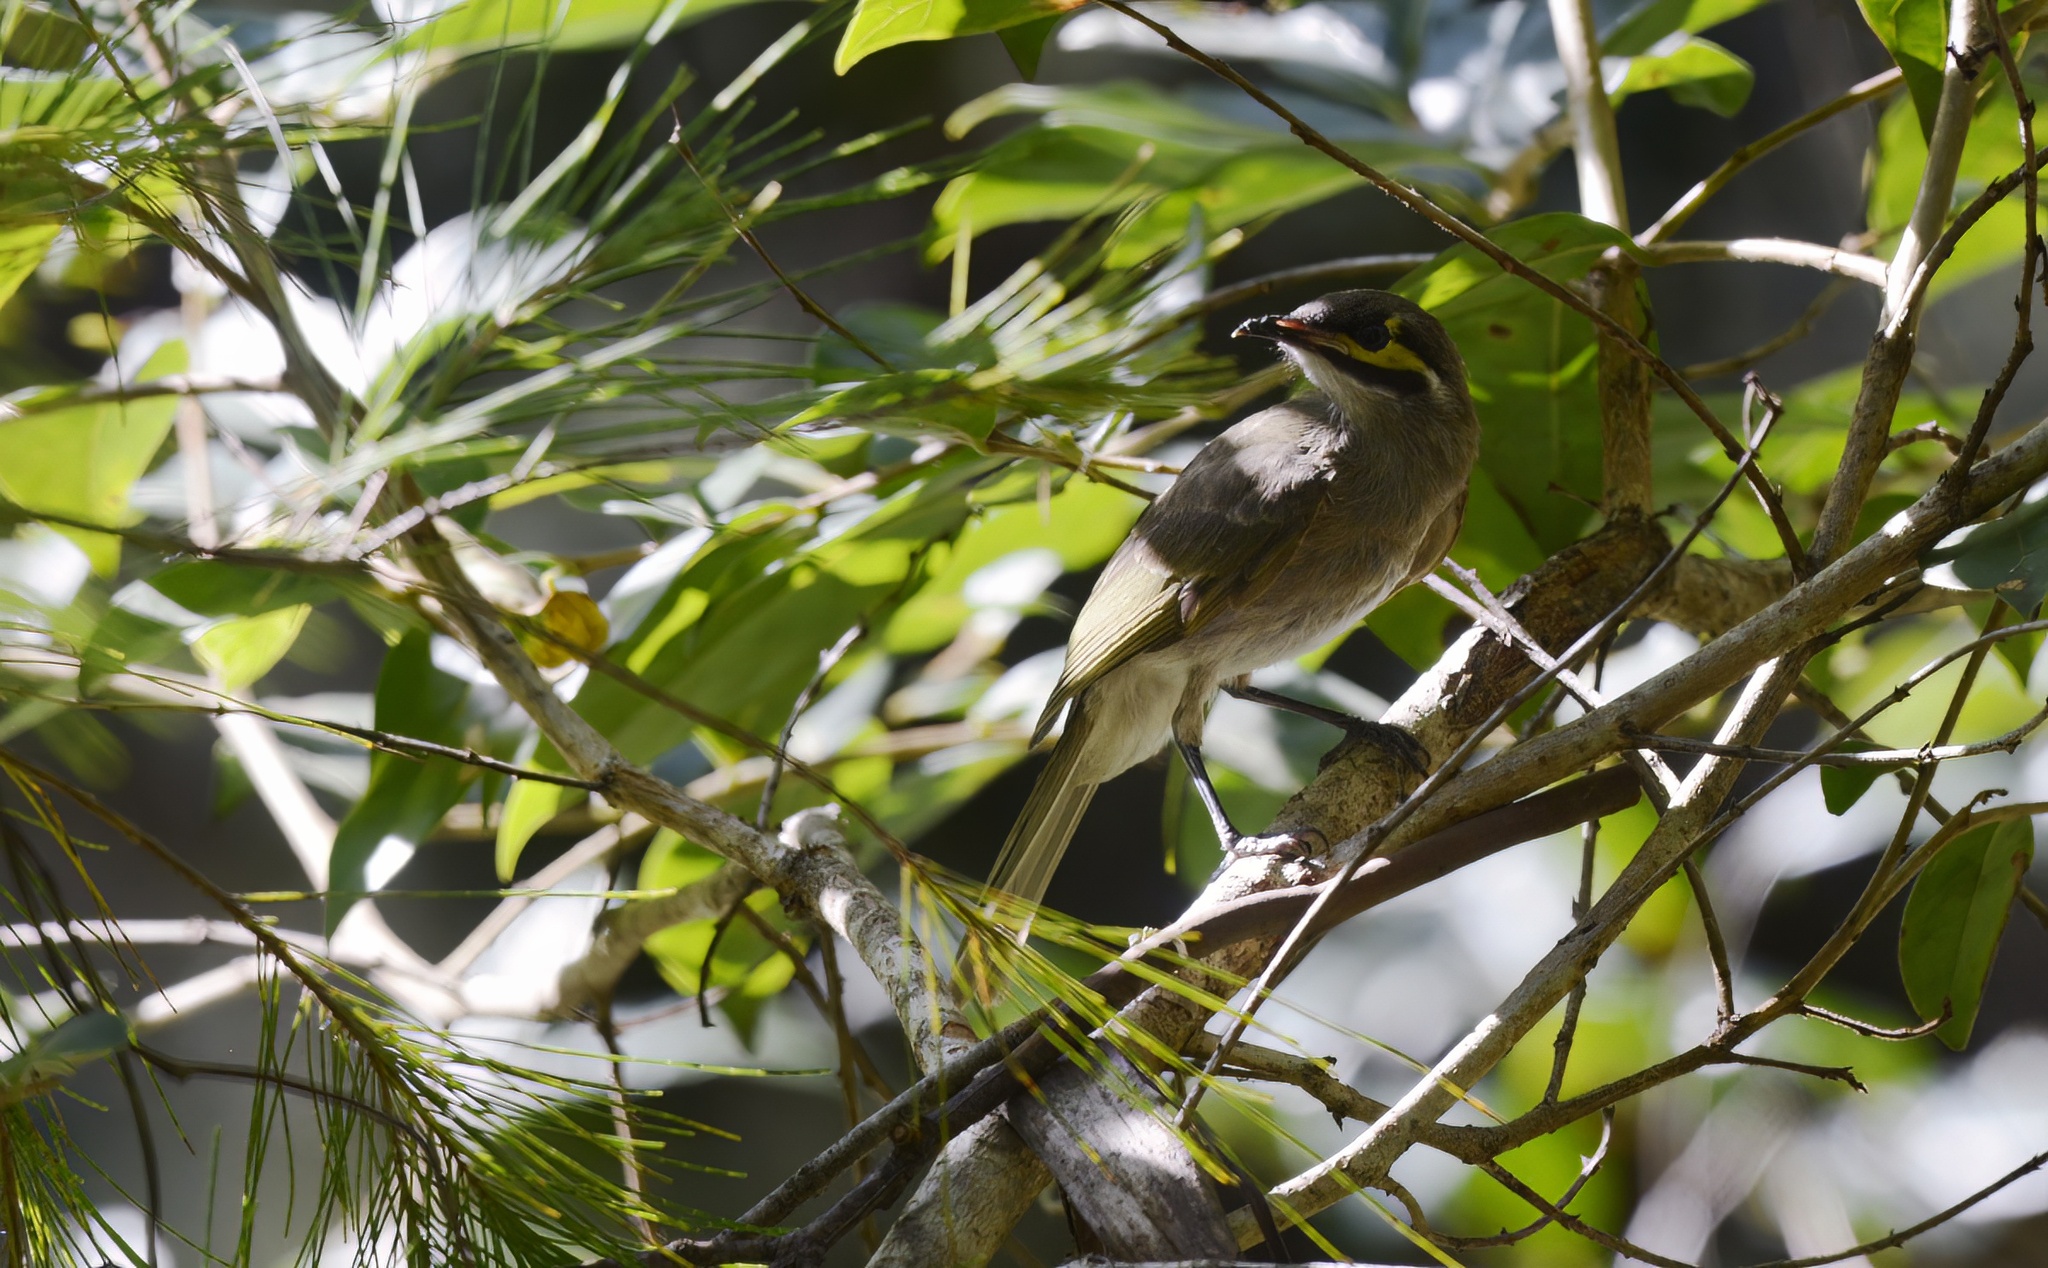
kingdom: Animalia
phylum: Chordata
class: Aves
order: Passeriformes
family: Meliphagidae
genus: Caligavis
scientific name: Caligavis chrysops
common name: Yellow-faced honeyeater
